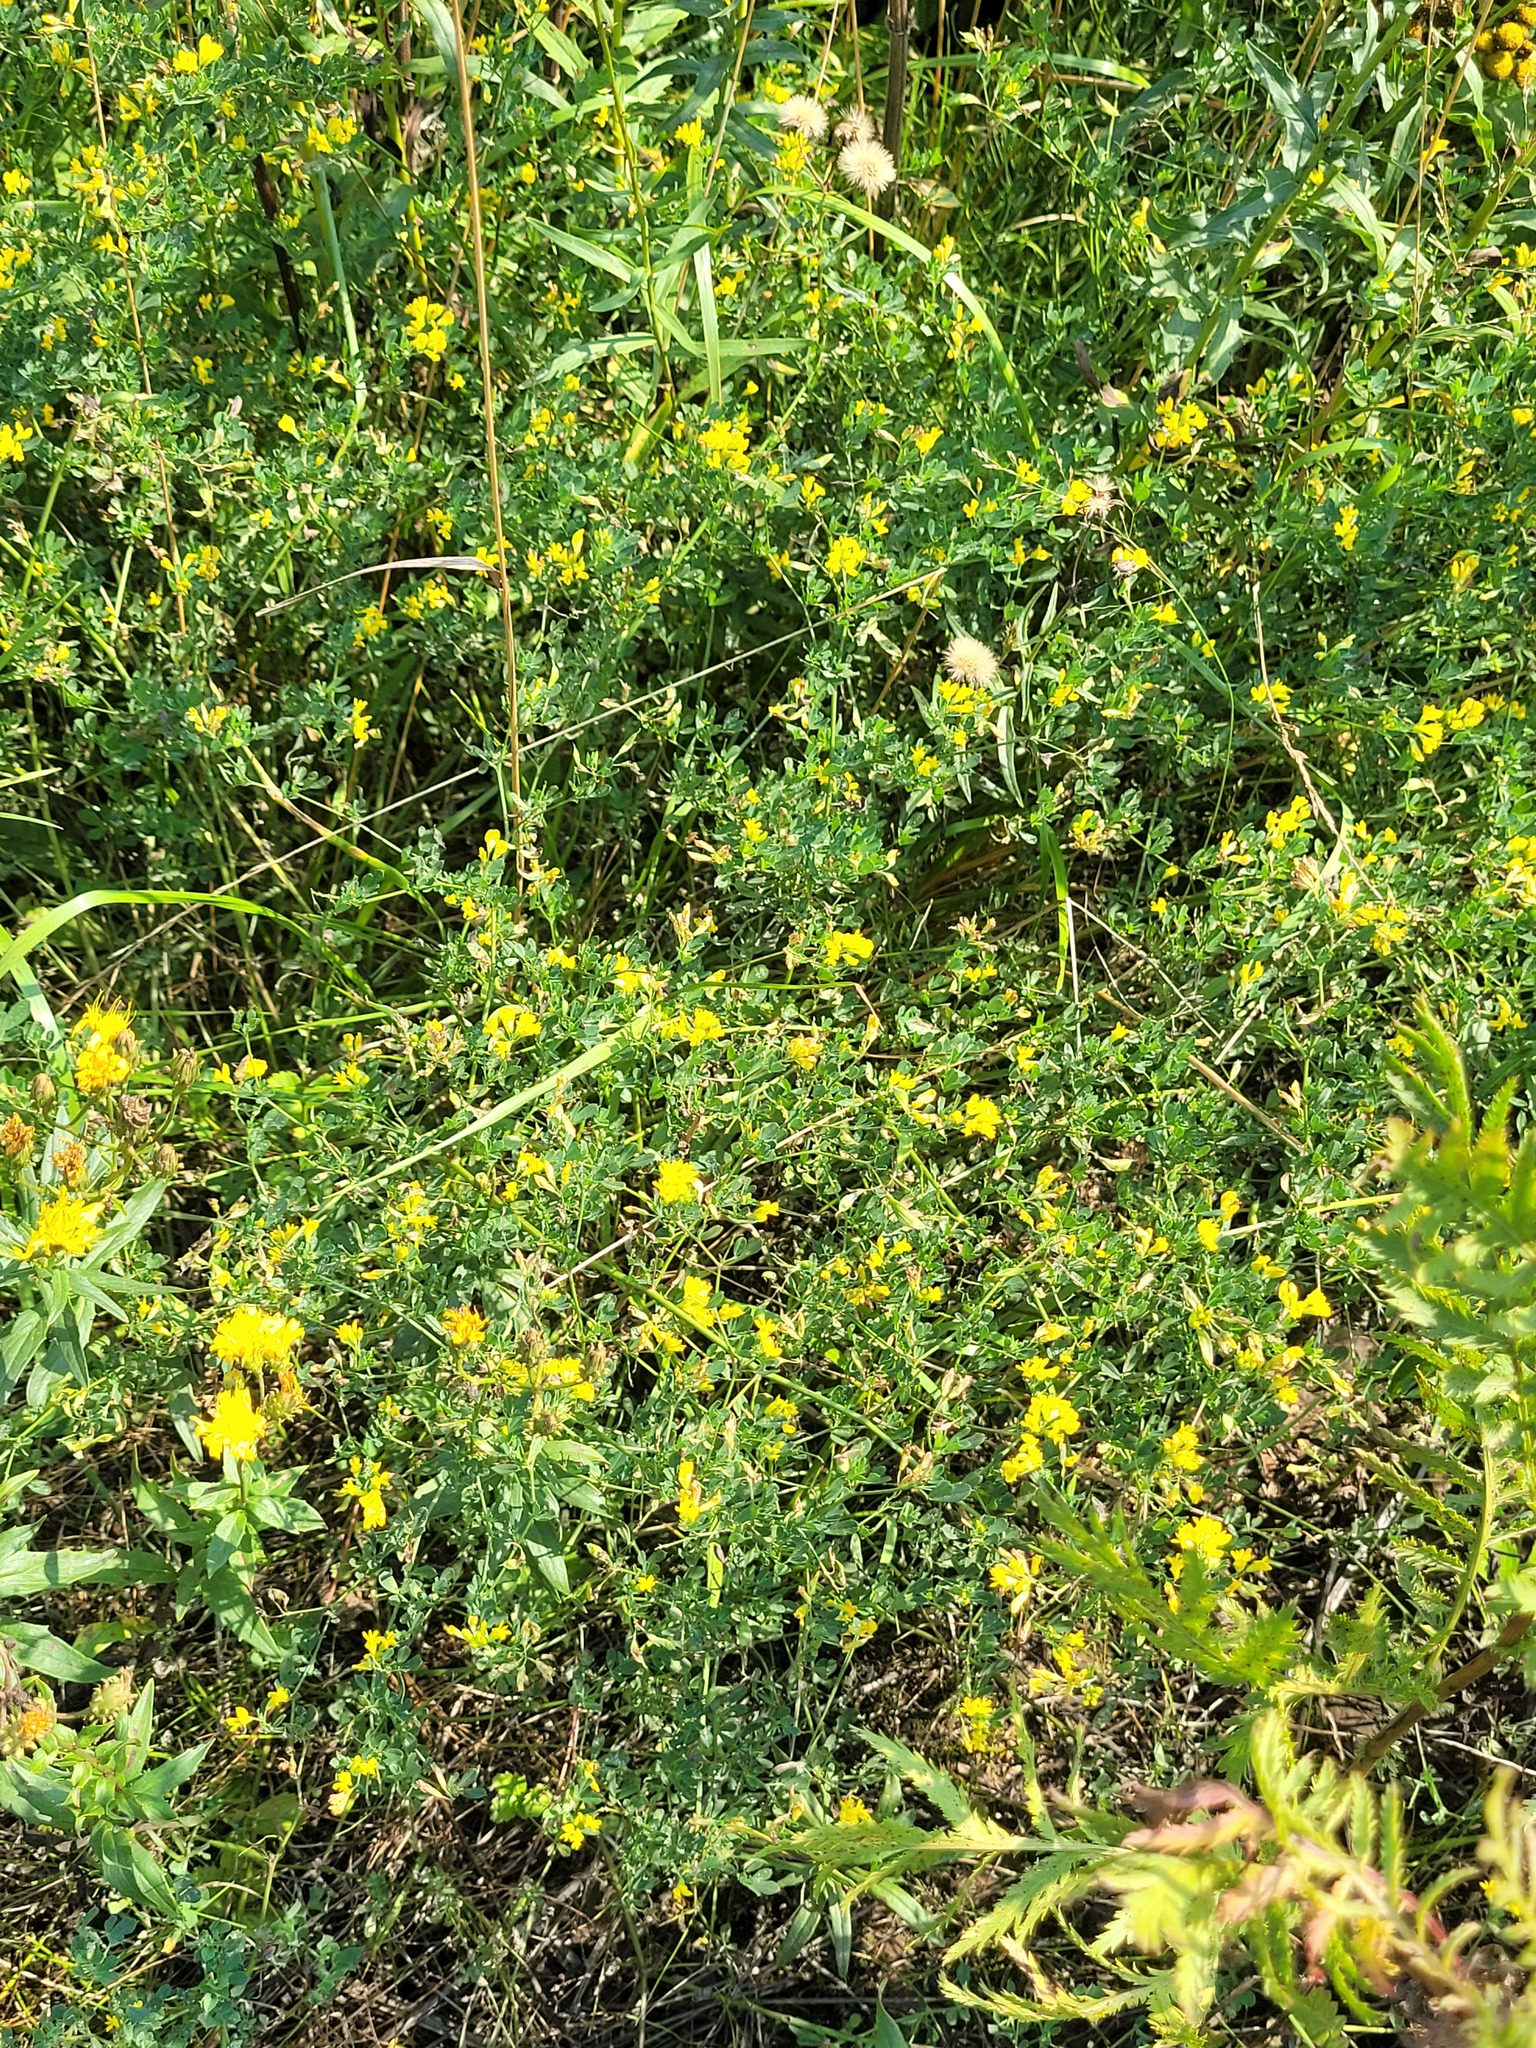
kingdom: Plantae
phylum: Tracheophyta
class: Magnoliopsida
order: Fabales
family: Fabaceae
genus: Medicago
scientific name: Medicago falcata
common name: Sickle medick
